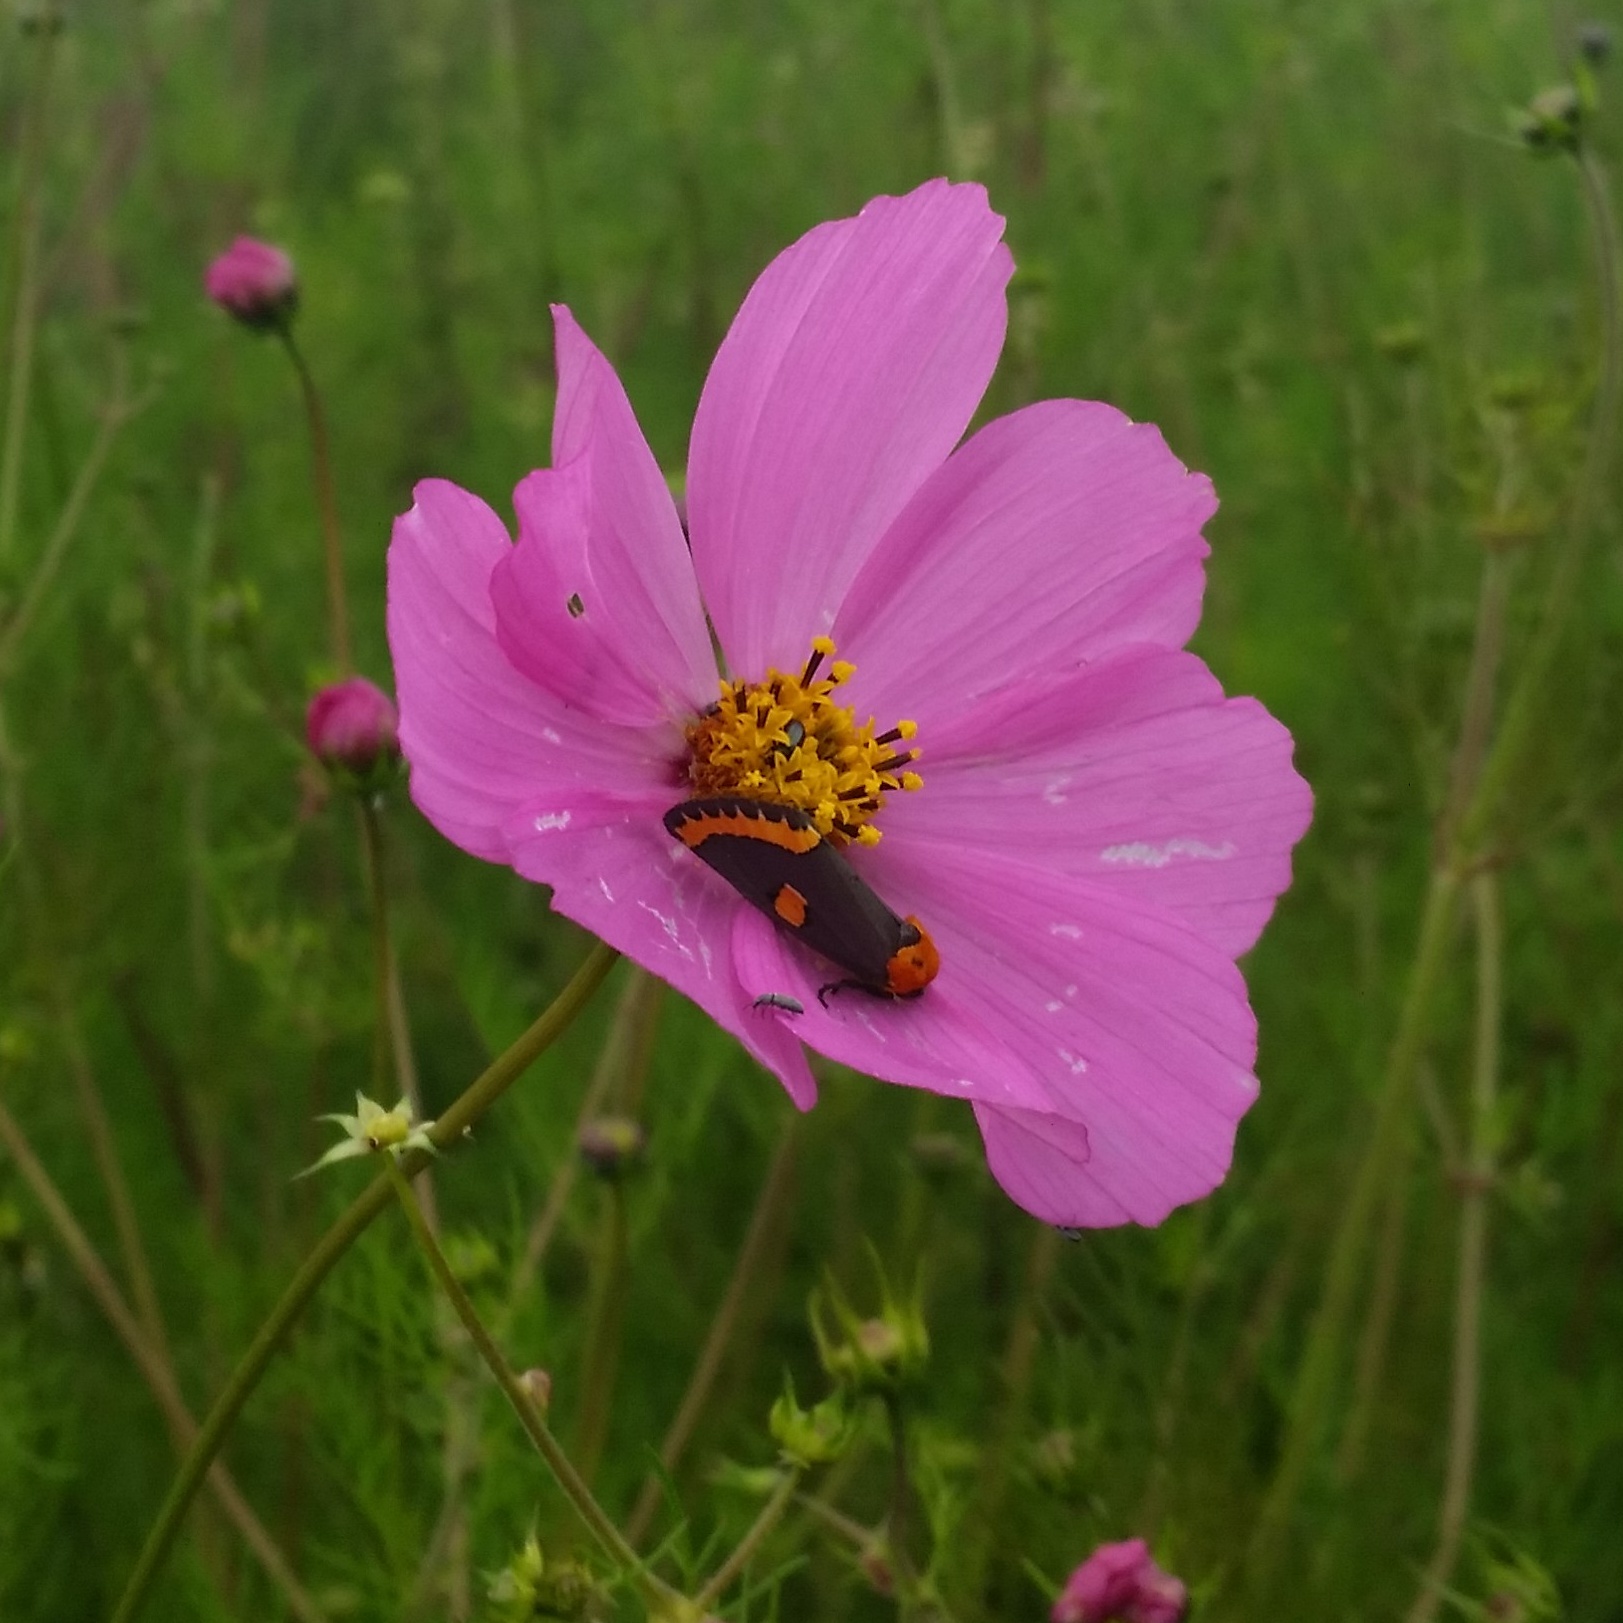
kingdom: Animalia
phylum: Arthropoda
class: Insecta
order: Lepidoptera
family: Noctuidae
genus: Chrysoecia
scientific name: Chrysoecia
